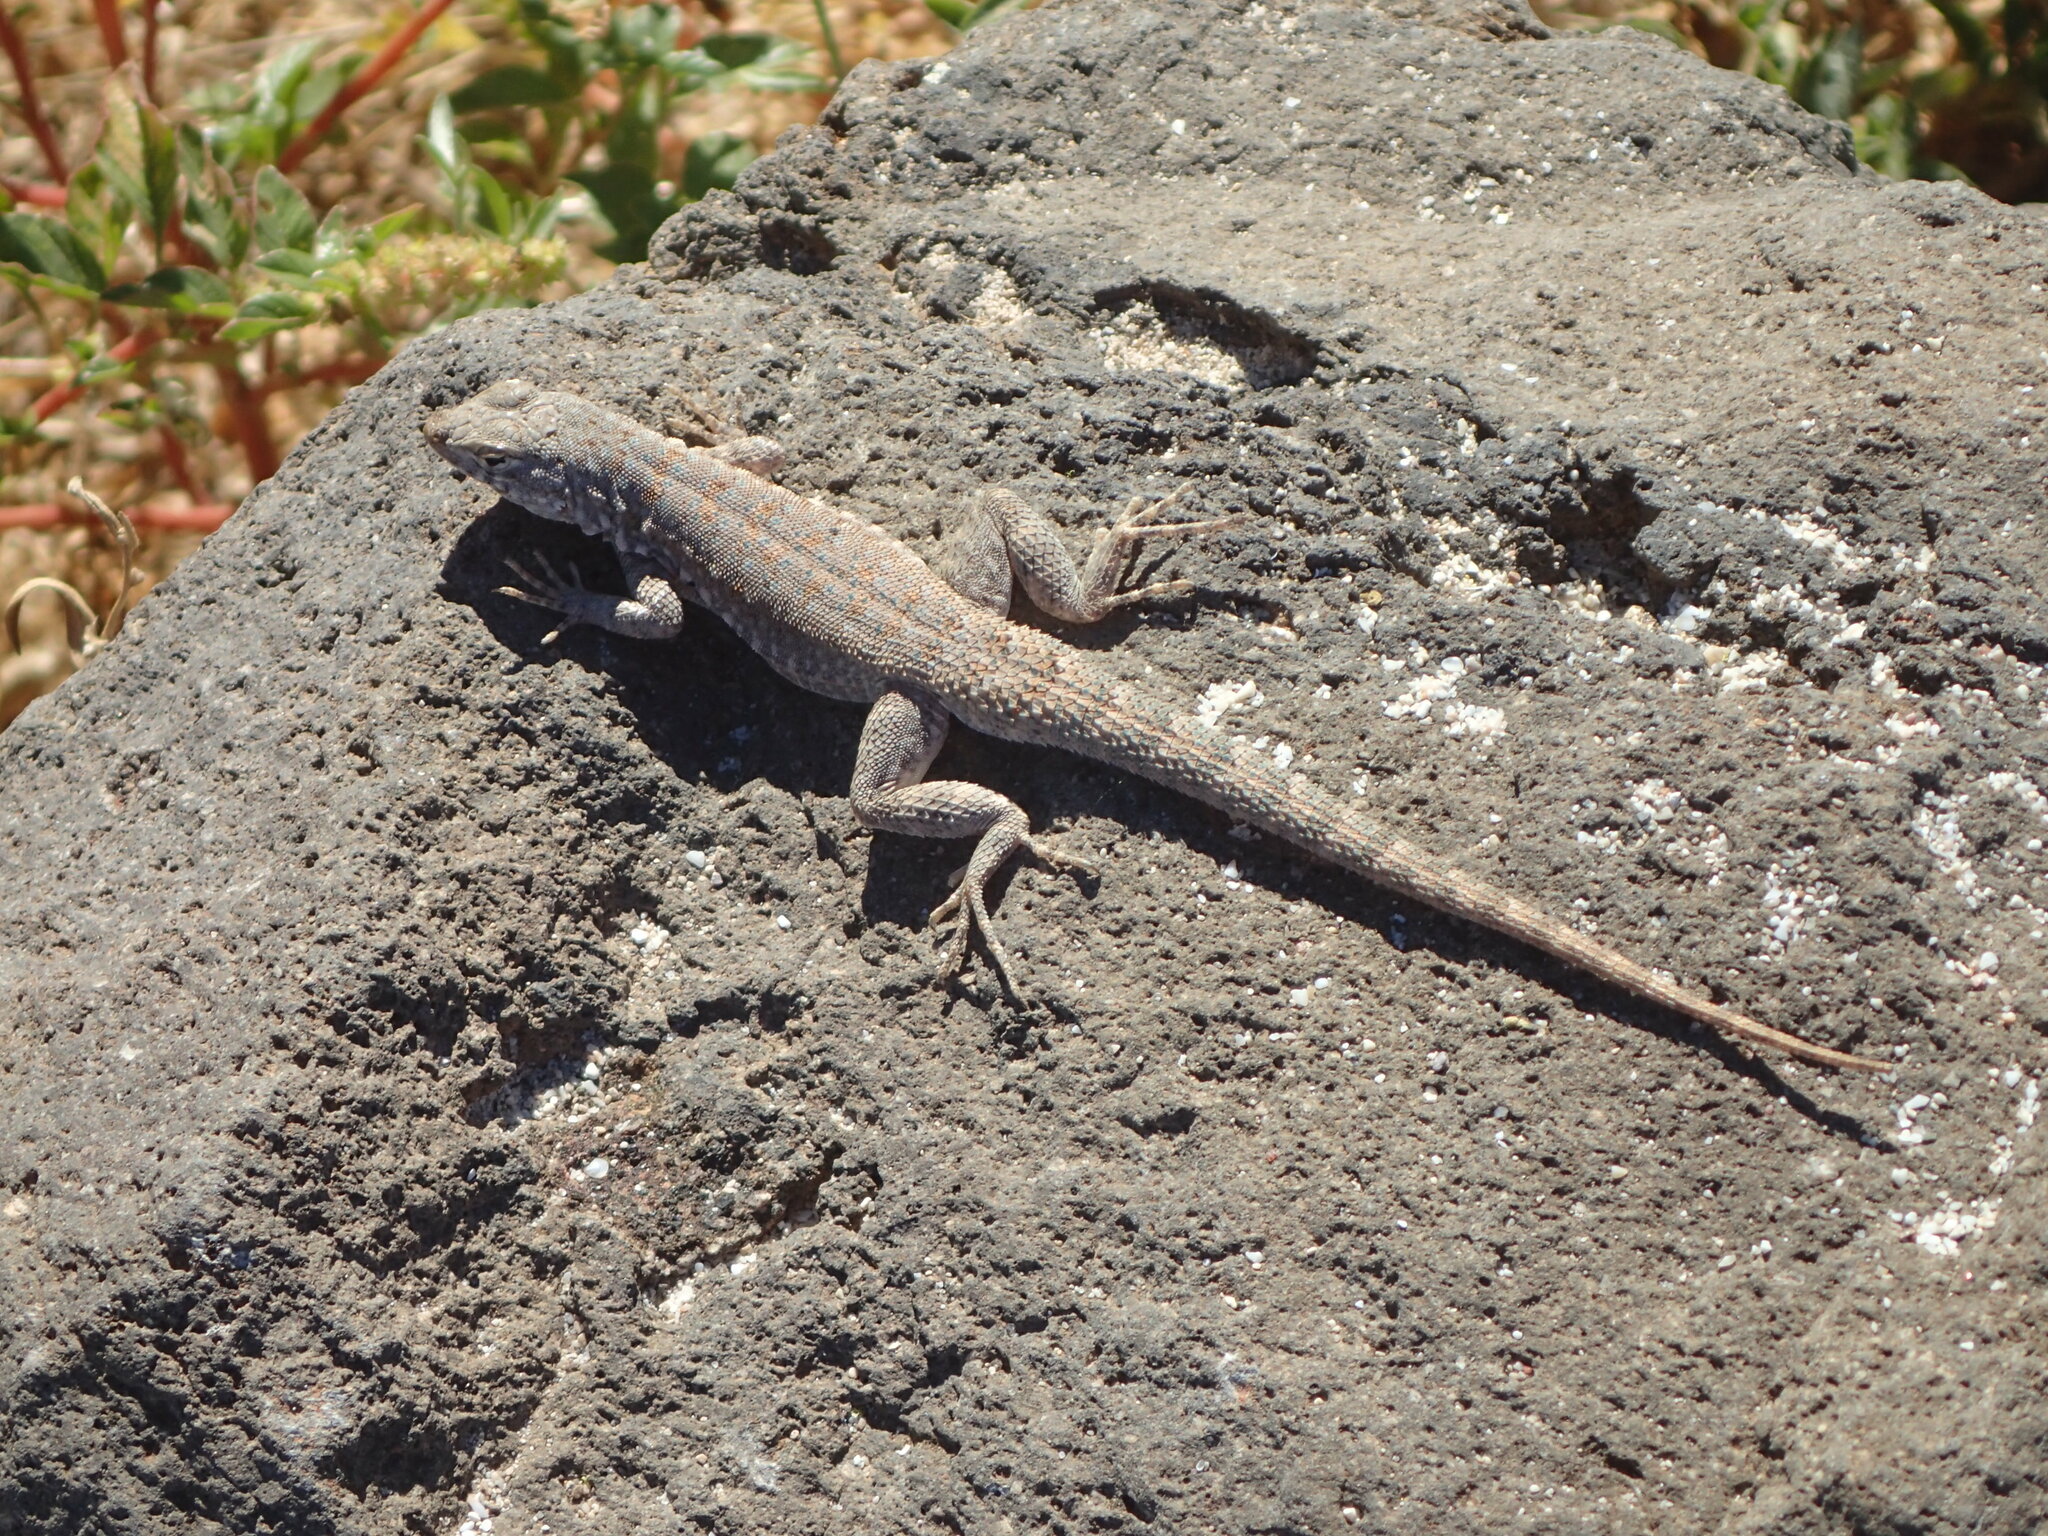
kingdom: Animalia
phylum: Chordata
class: Squamata
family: Phrynosomatidae
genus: Uta
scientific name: Uta stansburiana
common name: Side-blotched lizard
